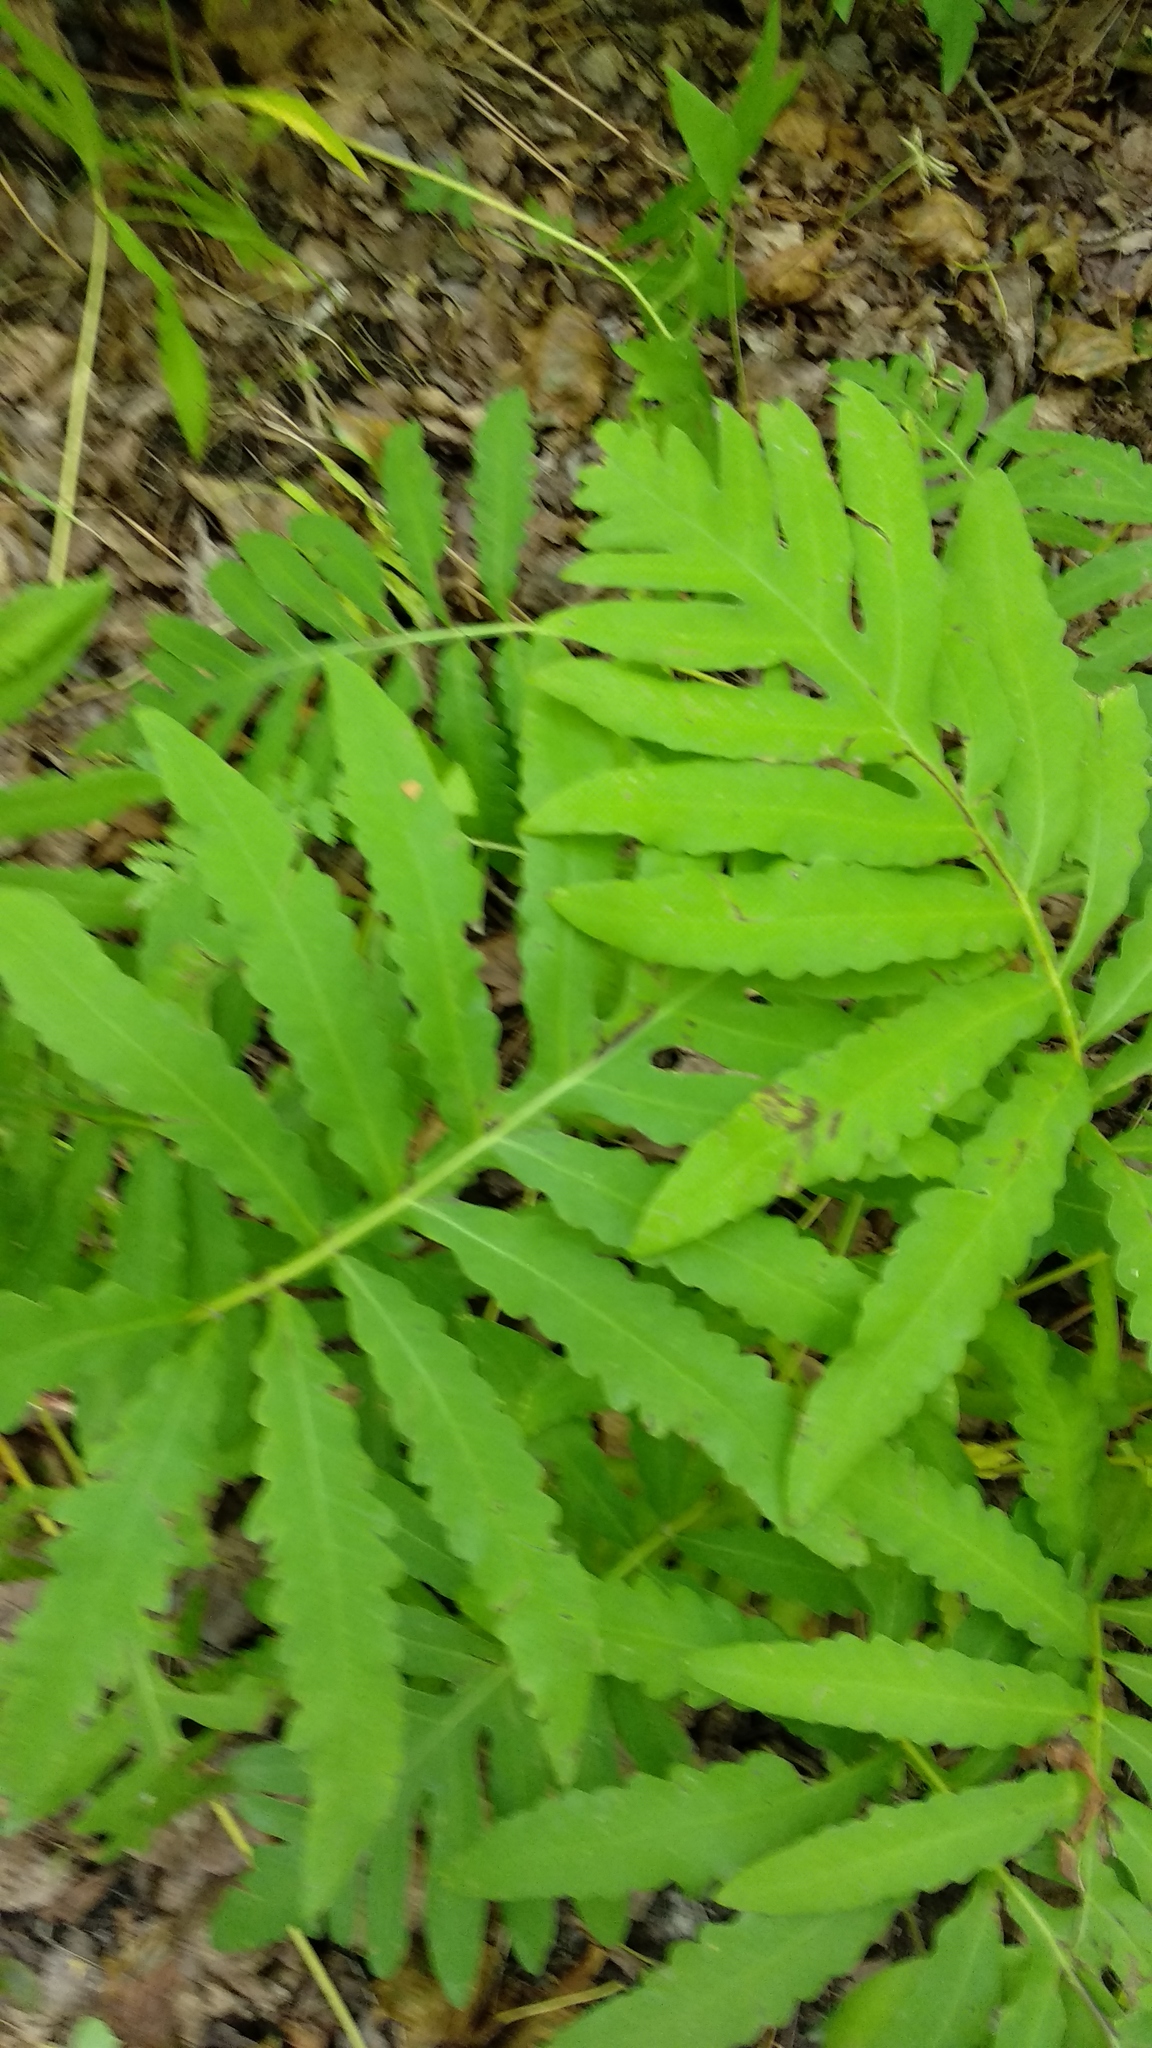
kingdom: Plantae
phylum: Tracheophyta
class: Polypodiopsida
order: Polypodiales
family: Onocleaceae
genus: Onoclea
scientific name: Onoclea sensibilis
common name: Sensitive fern
